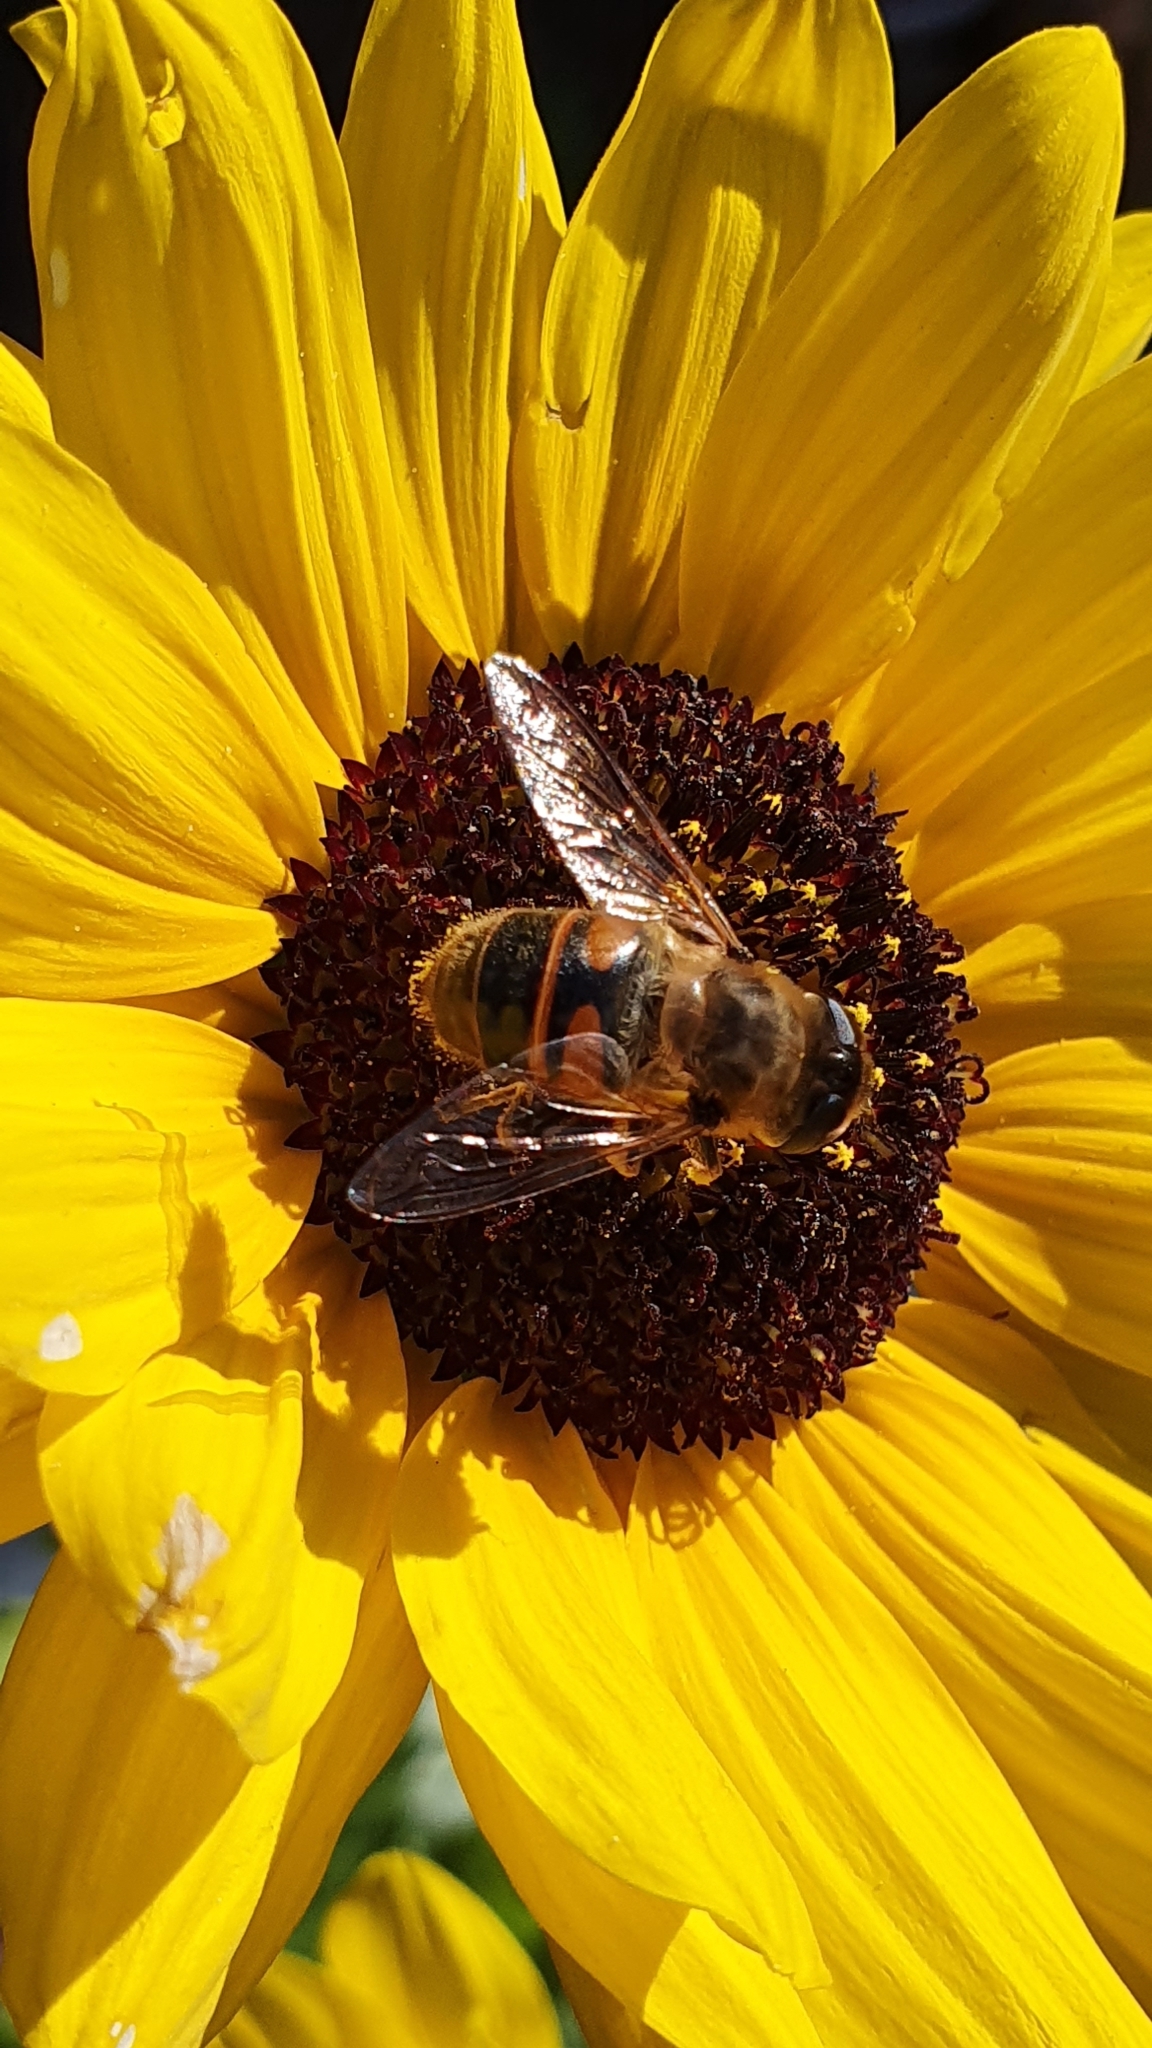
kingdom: Animalia
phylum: Arthropoda
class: Insecta
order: Diptera
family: Syrphidae
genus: Eristalis
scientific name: Eristalis tenax
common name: Drone fly
